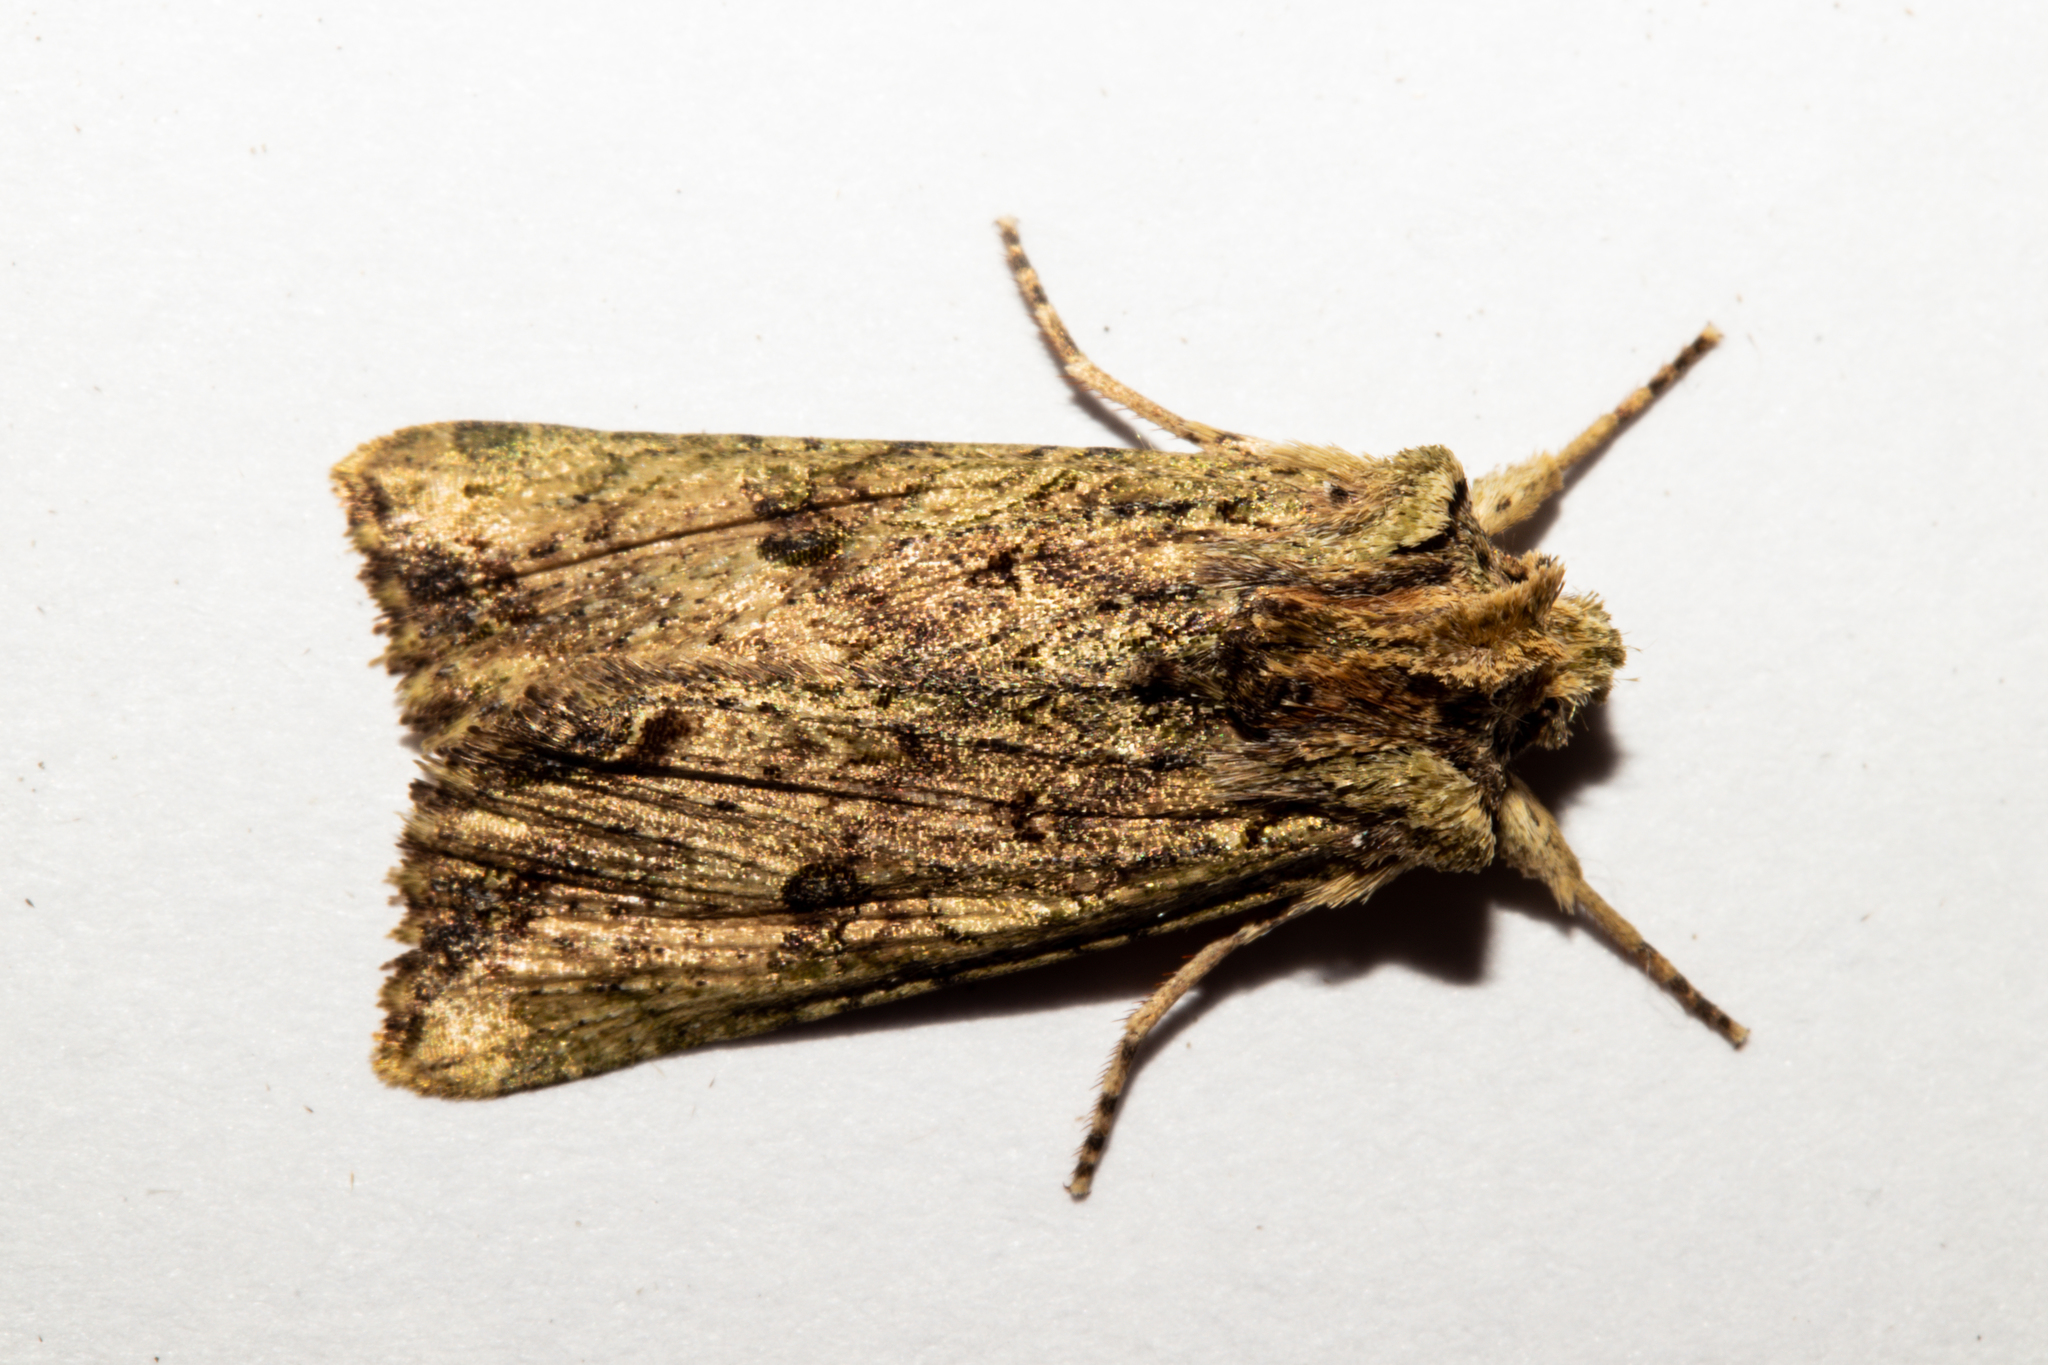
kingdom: Animalia
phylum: Arthropoda
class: Insecta
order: Lepidoptera
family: Noctuidae
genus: Meterana
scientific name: Meterana coeleno
